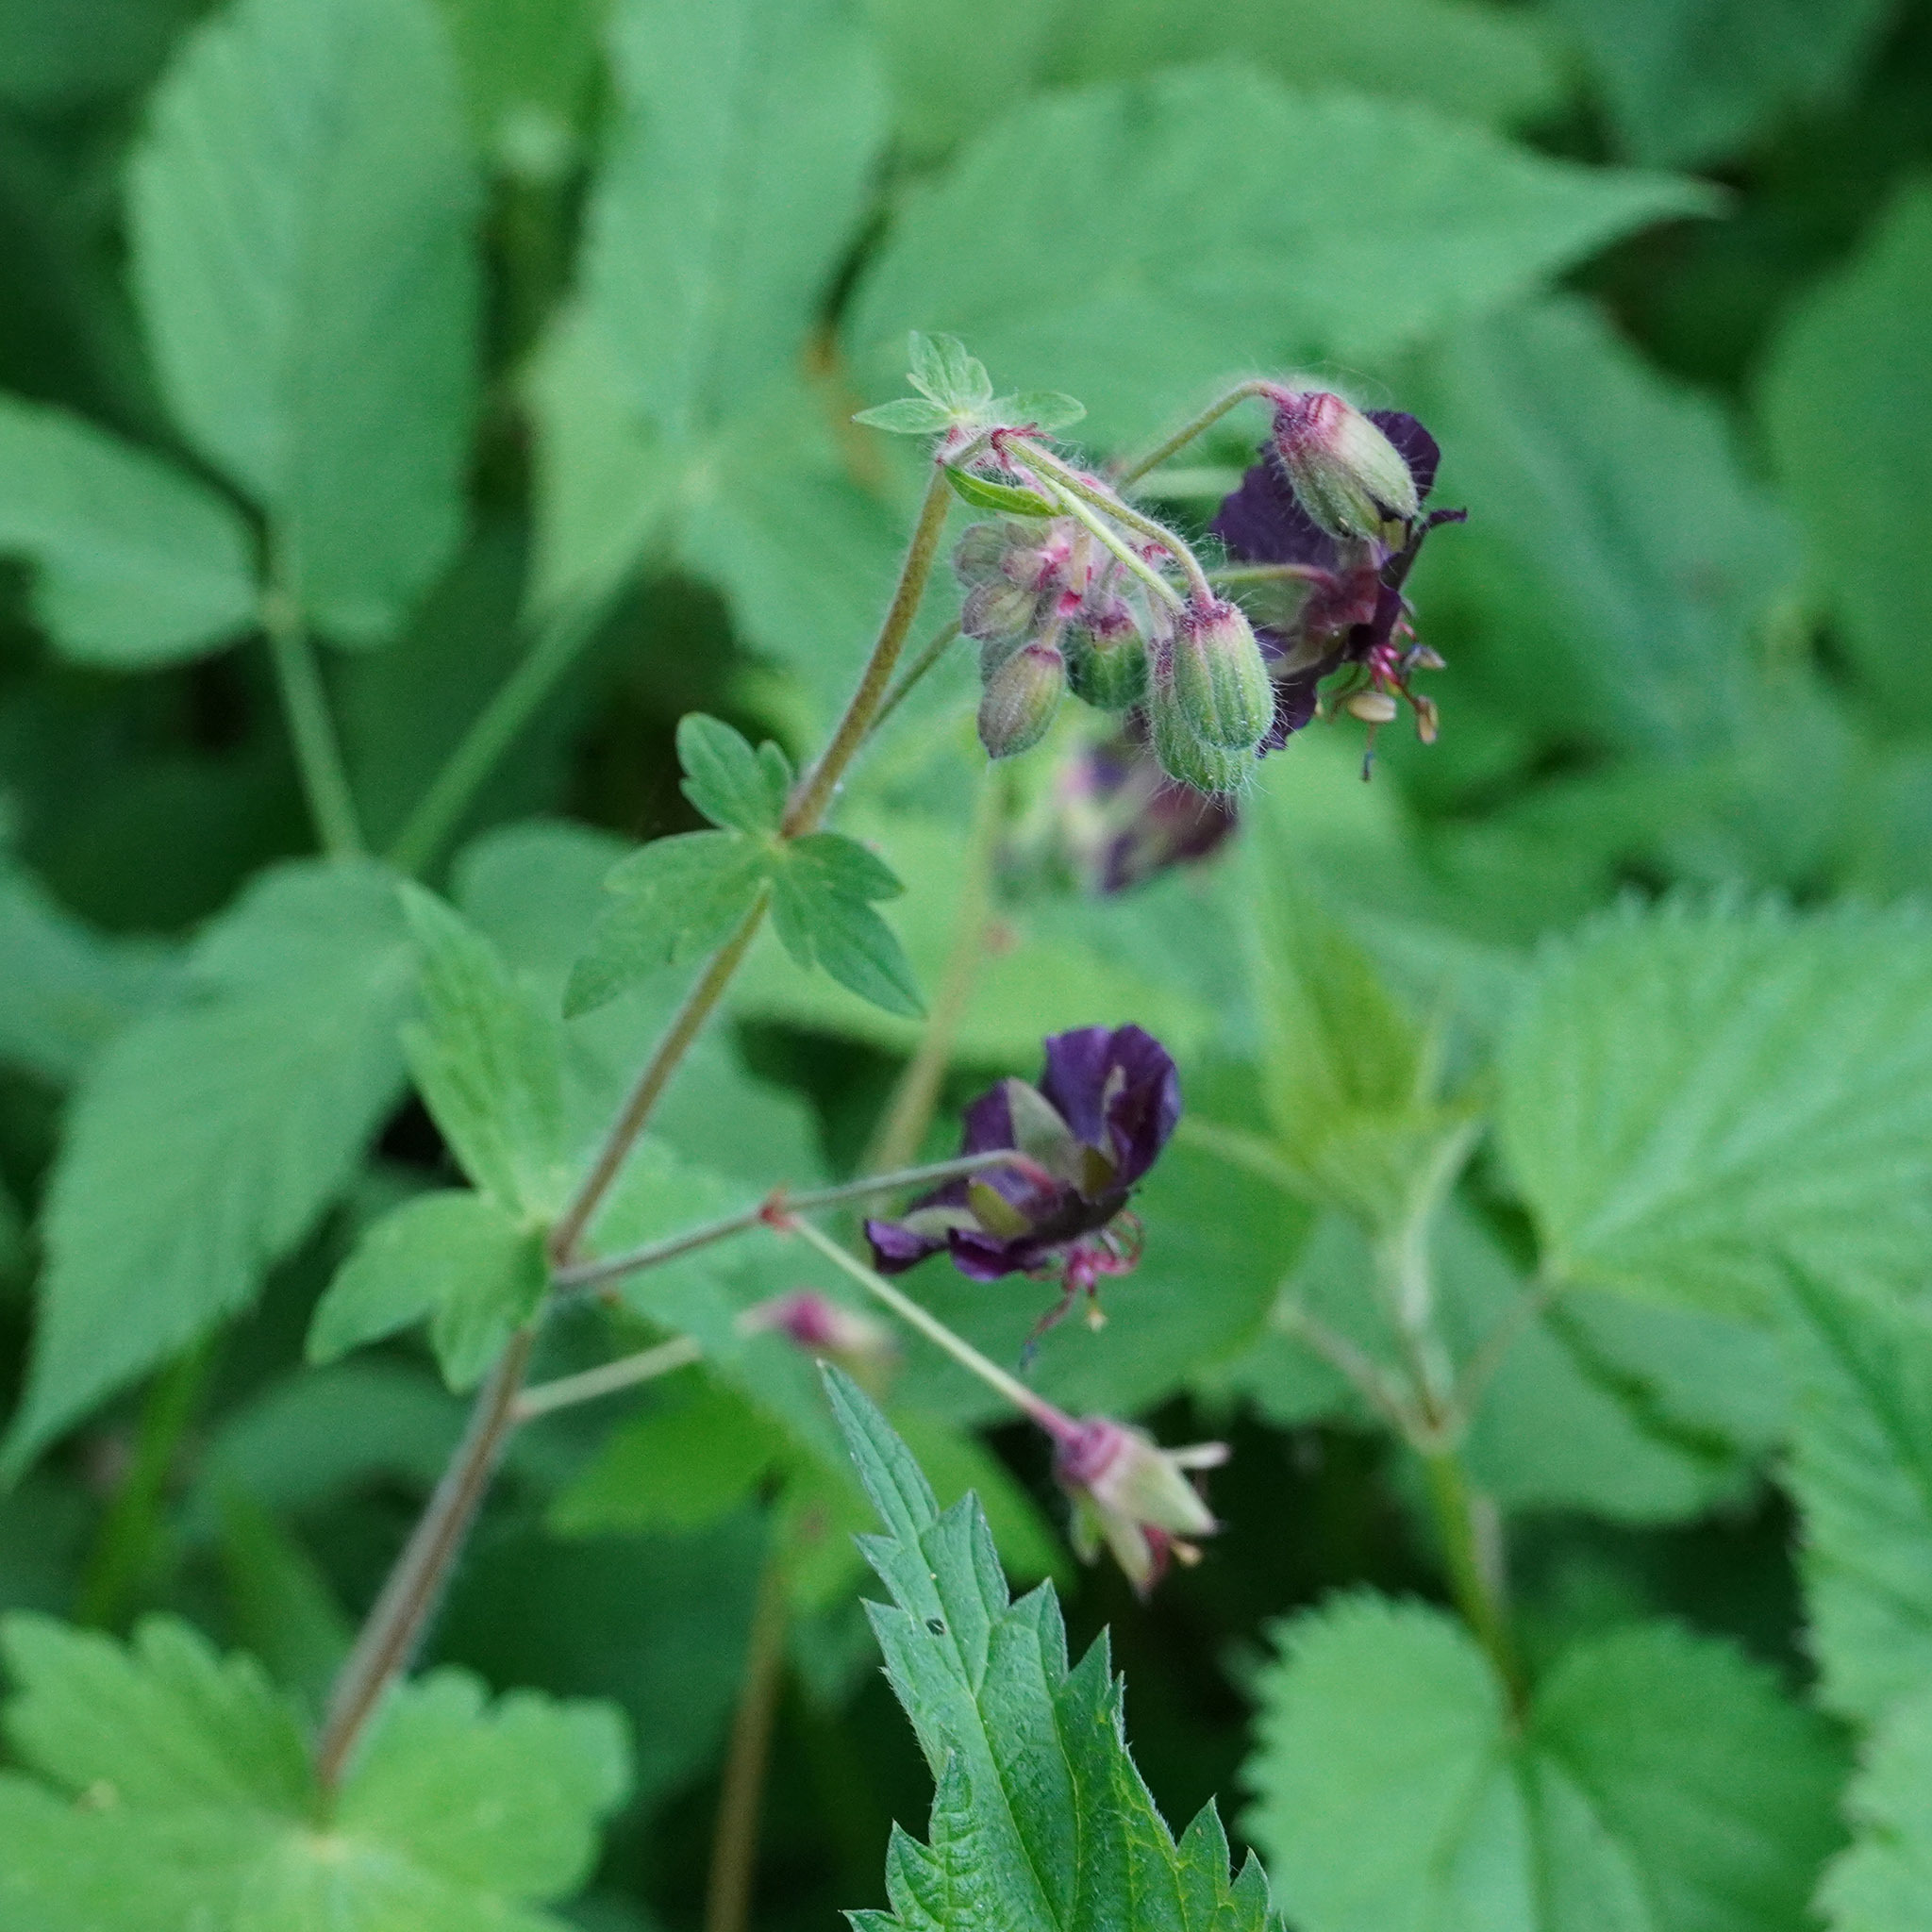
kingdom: Plantae
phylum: Tracheophyta
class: Magnoliopsida
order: Geraniales
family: Geraniaceae
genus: Geranium
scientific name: Geranium phaeum
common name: Dusky crane's-bill
